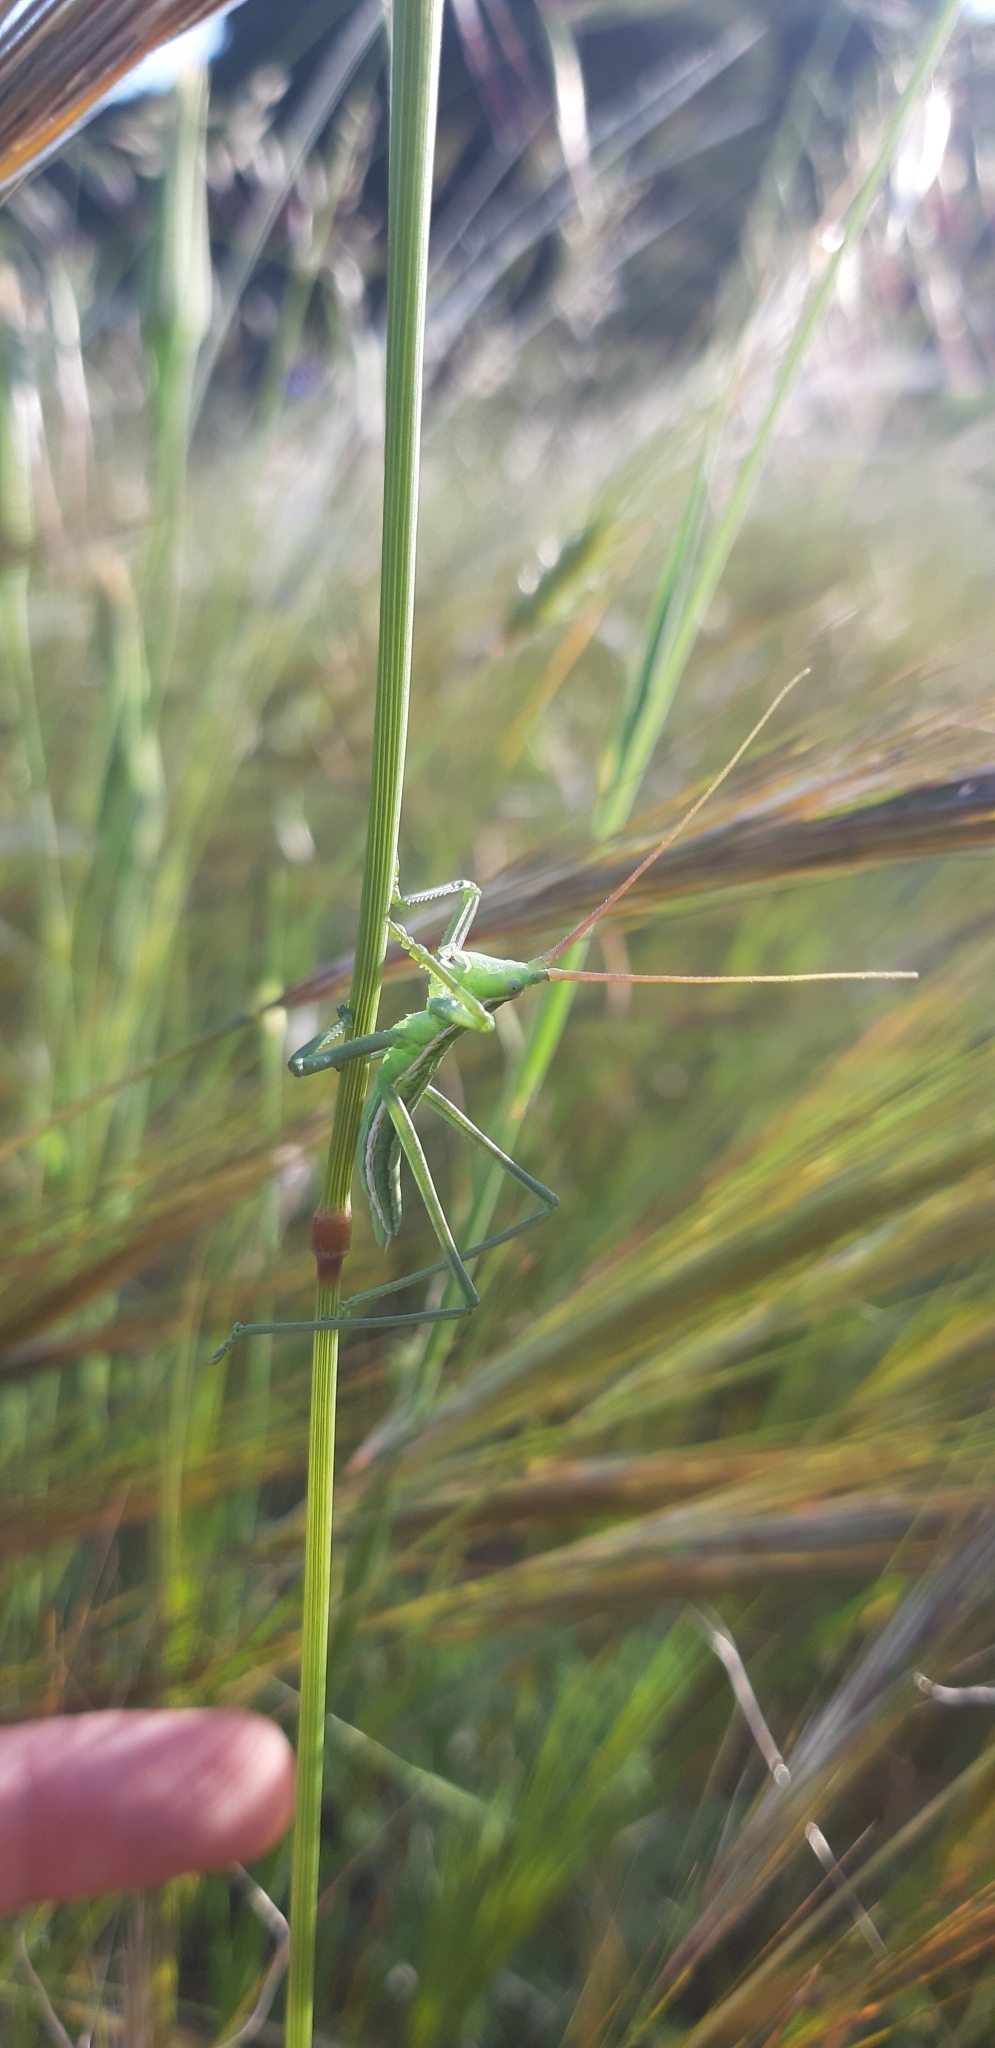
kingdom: Animalia
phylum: Arthropoda
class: Insecta
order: Orthoptera
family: Tettigoniidae
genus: Saga
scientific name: Saga pedo
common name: Common predatory bush-cricket
